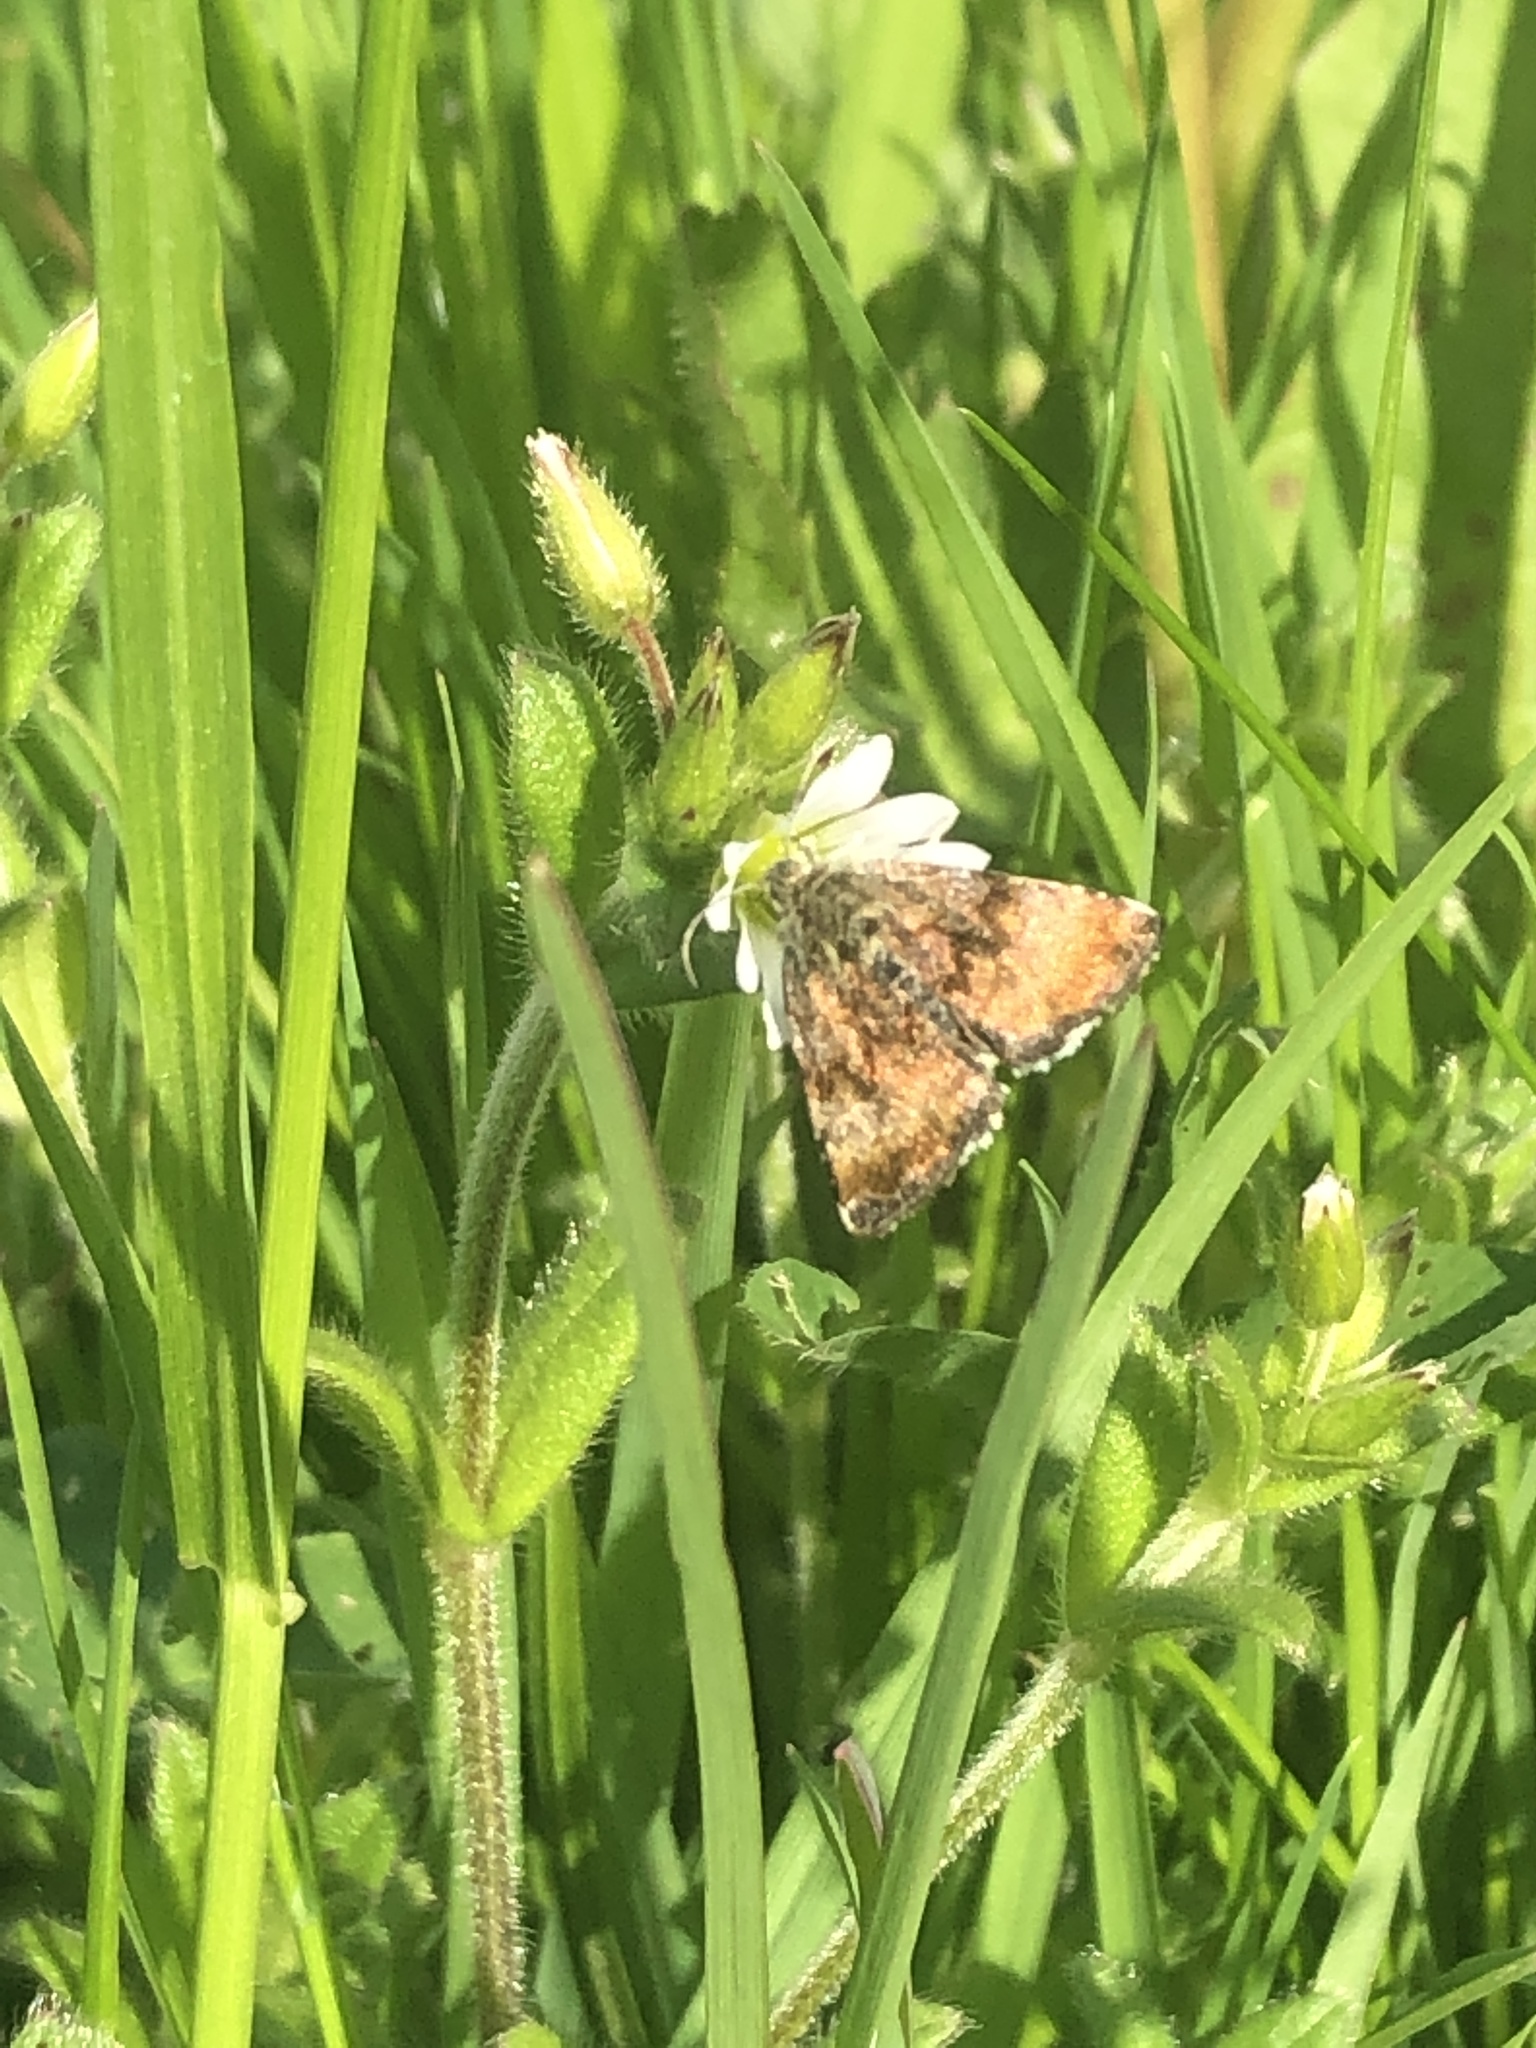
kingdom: Animalia
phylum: Arthropoda
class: Insecta
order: Lepidoptera
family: Noctuidae
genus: Panemeria
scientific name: Panemeria tenebrata
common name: Small yellow underwing
